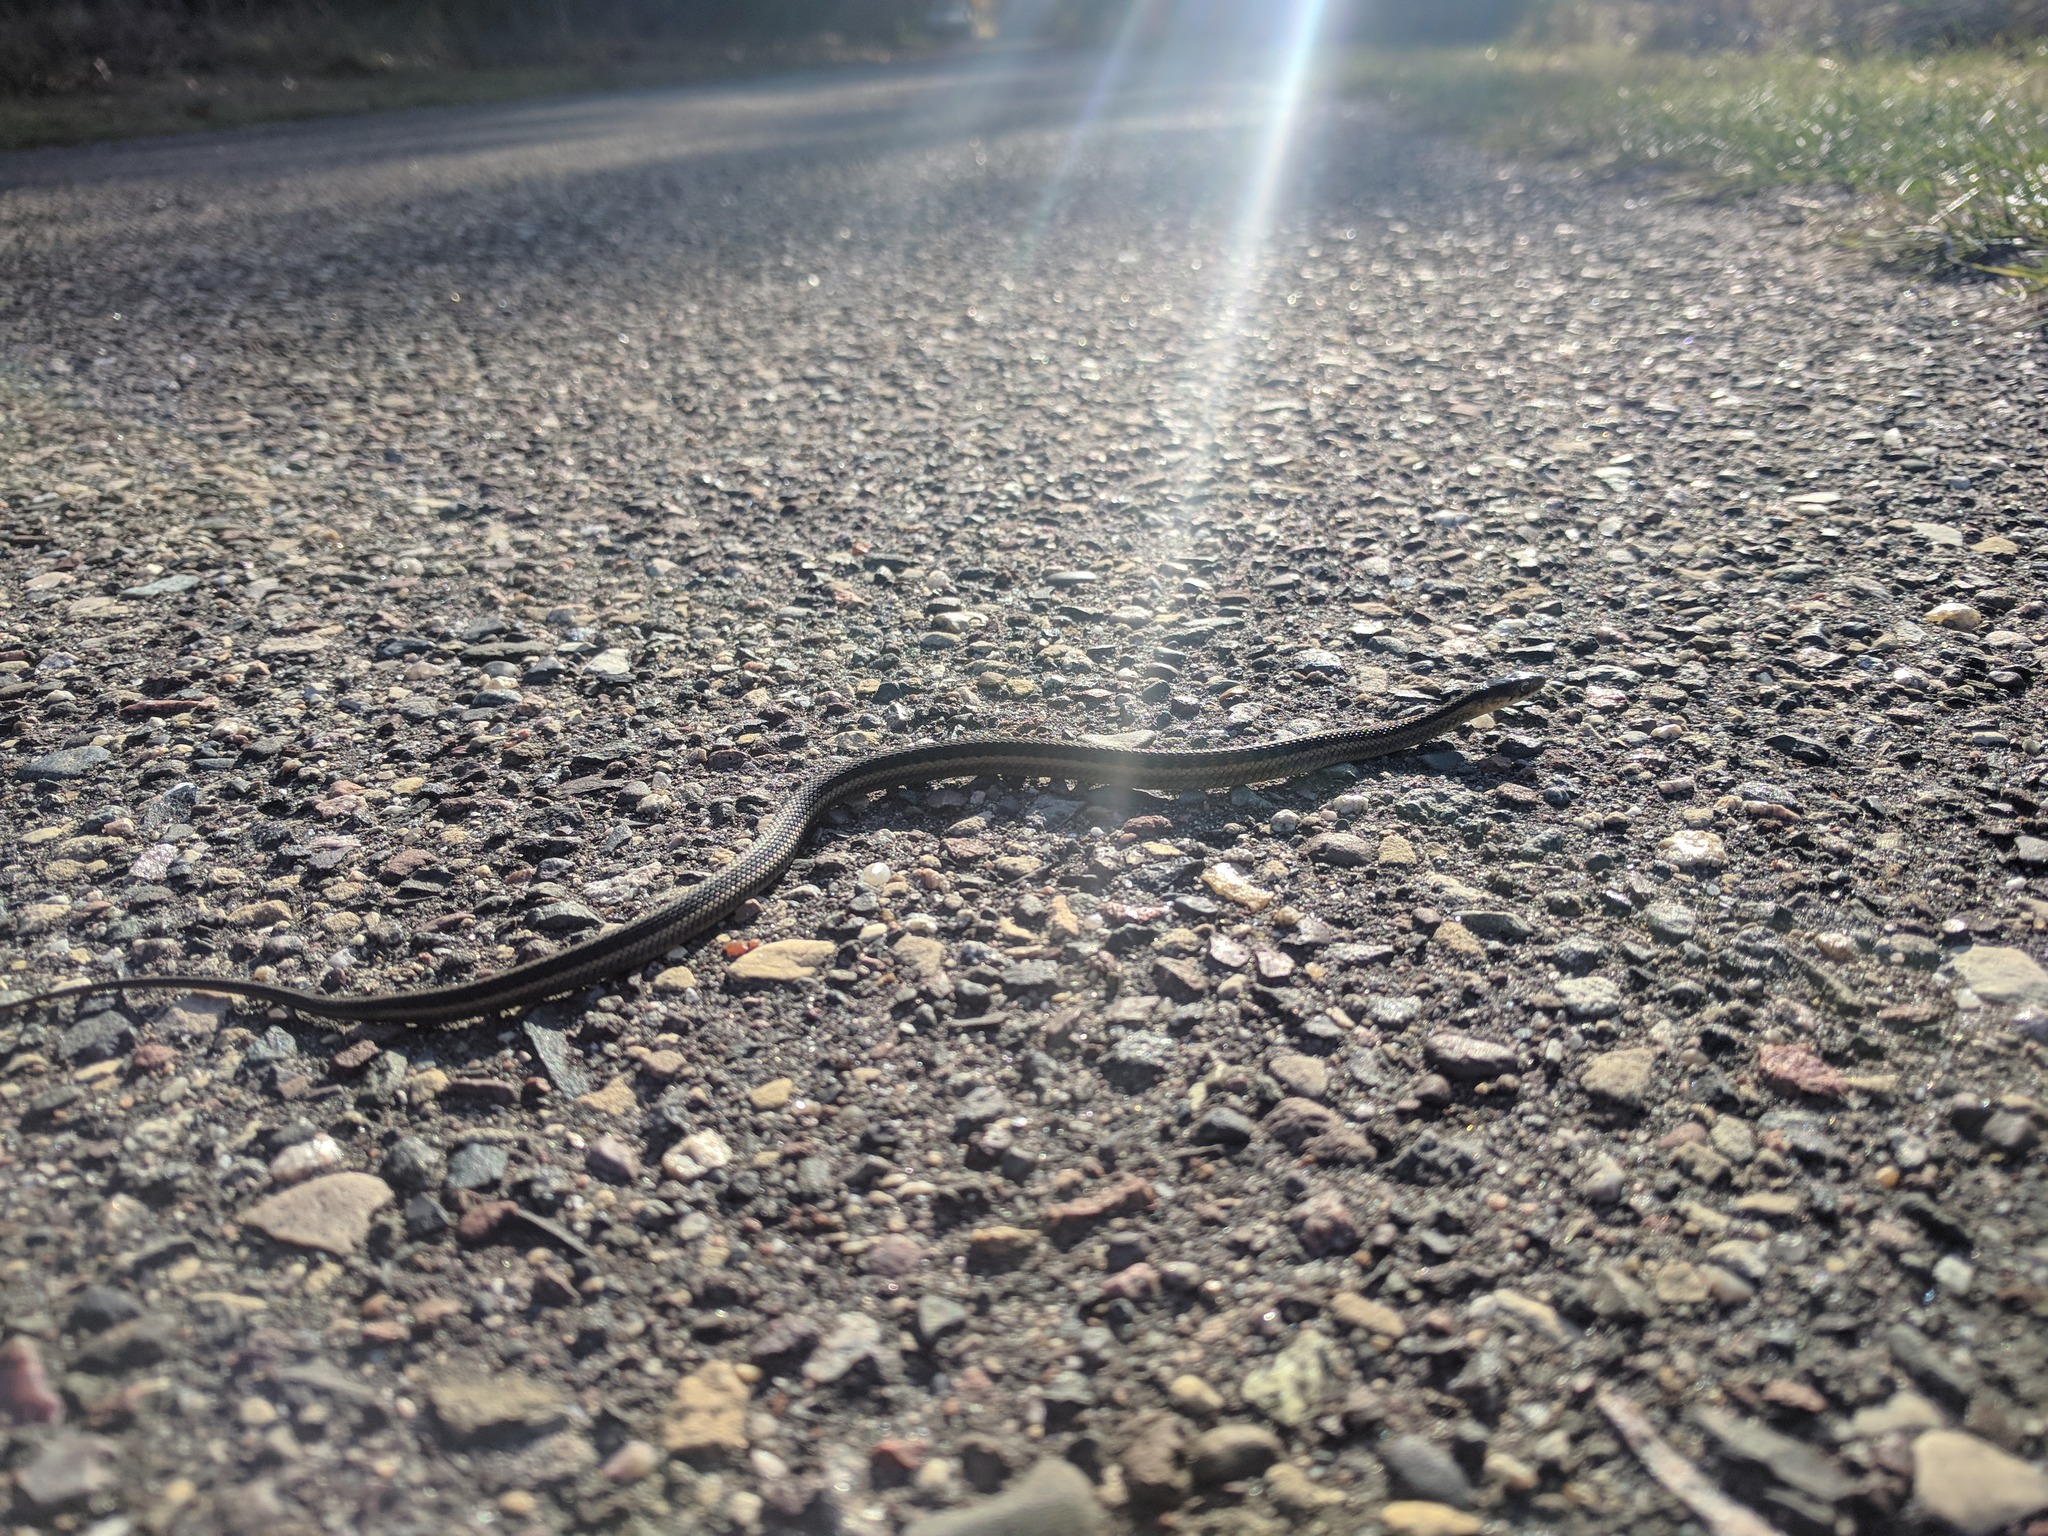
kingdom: Animalia
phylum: Chordata
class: Squamata
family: Colubridae
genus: Thamnophis
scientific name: Thamnophis sirtalis
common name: Common garter snake
